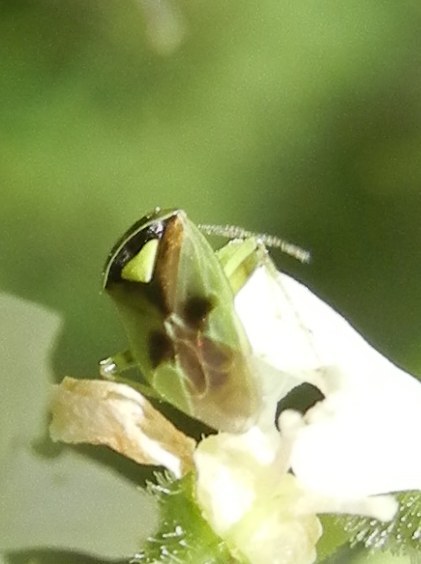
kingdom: Animalia
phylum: Arthropoda
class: Insecta
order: Hemiptera
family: Miridae
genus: Orthops
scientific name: Orthops campestris
